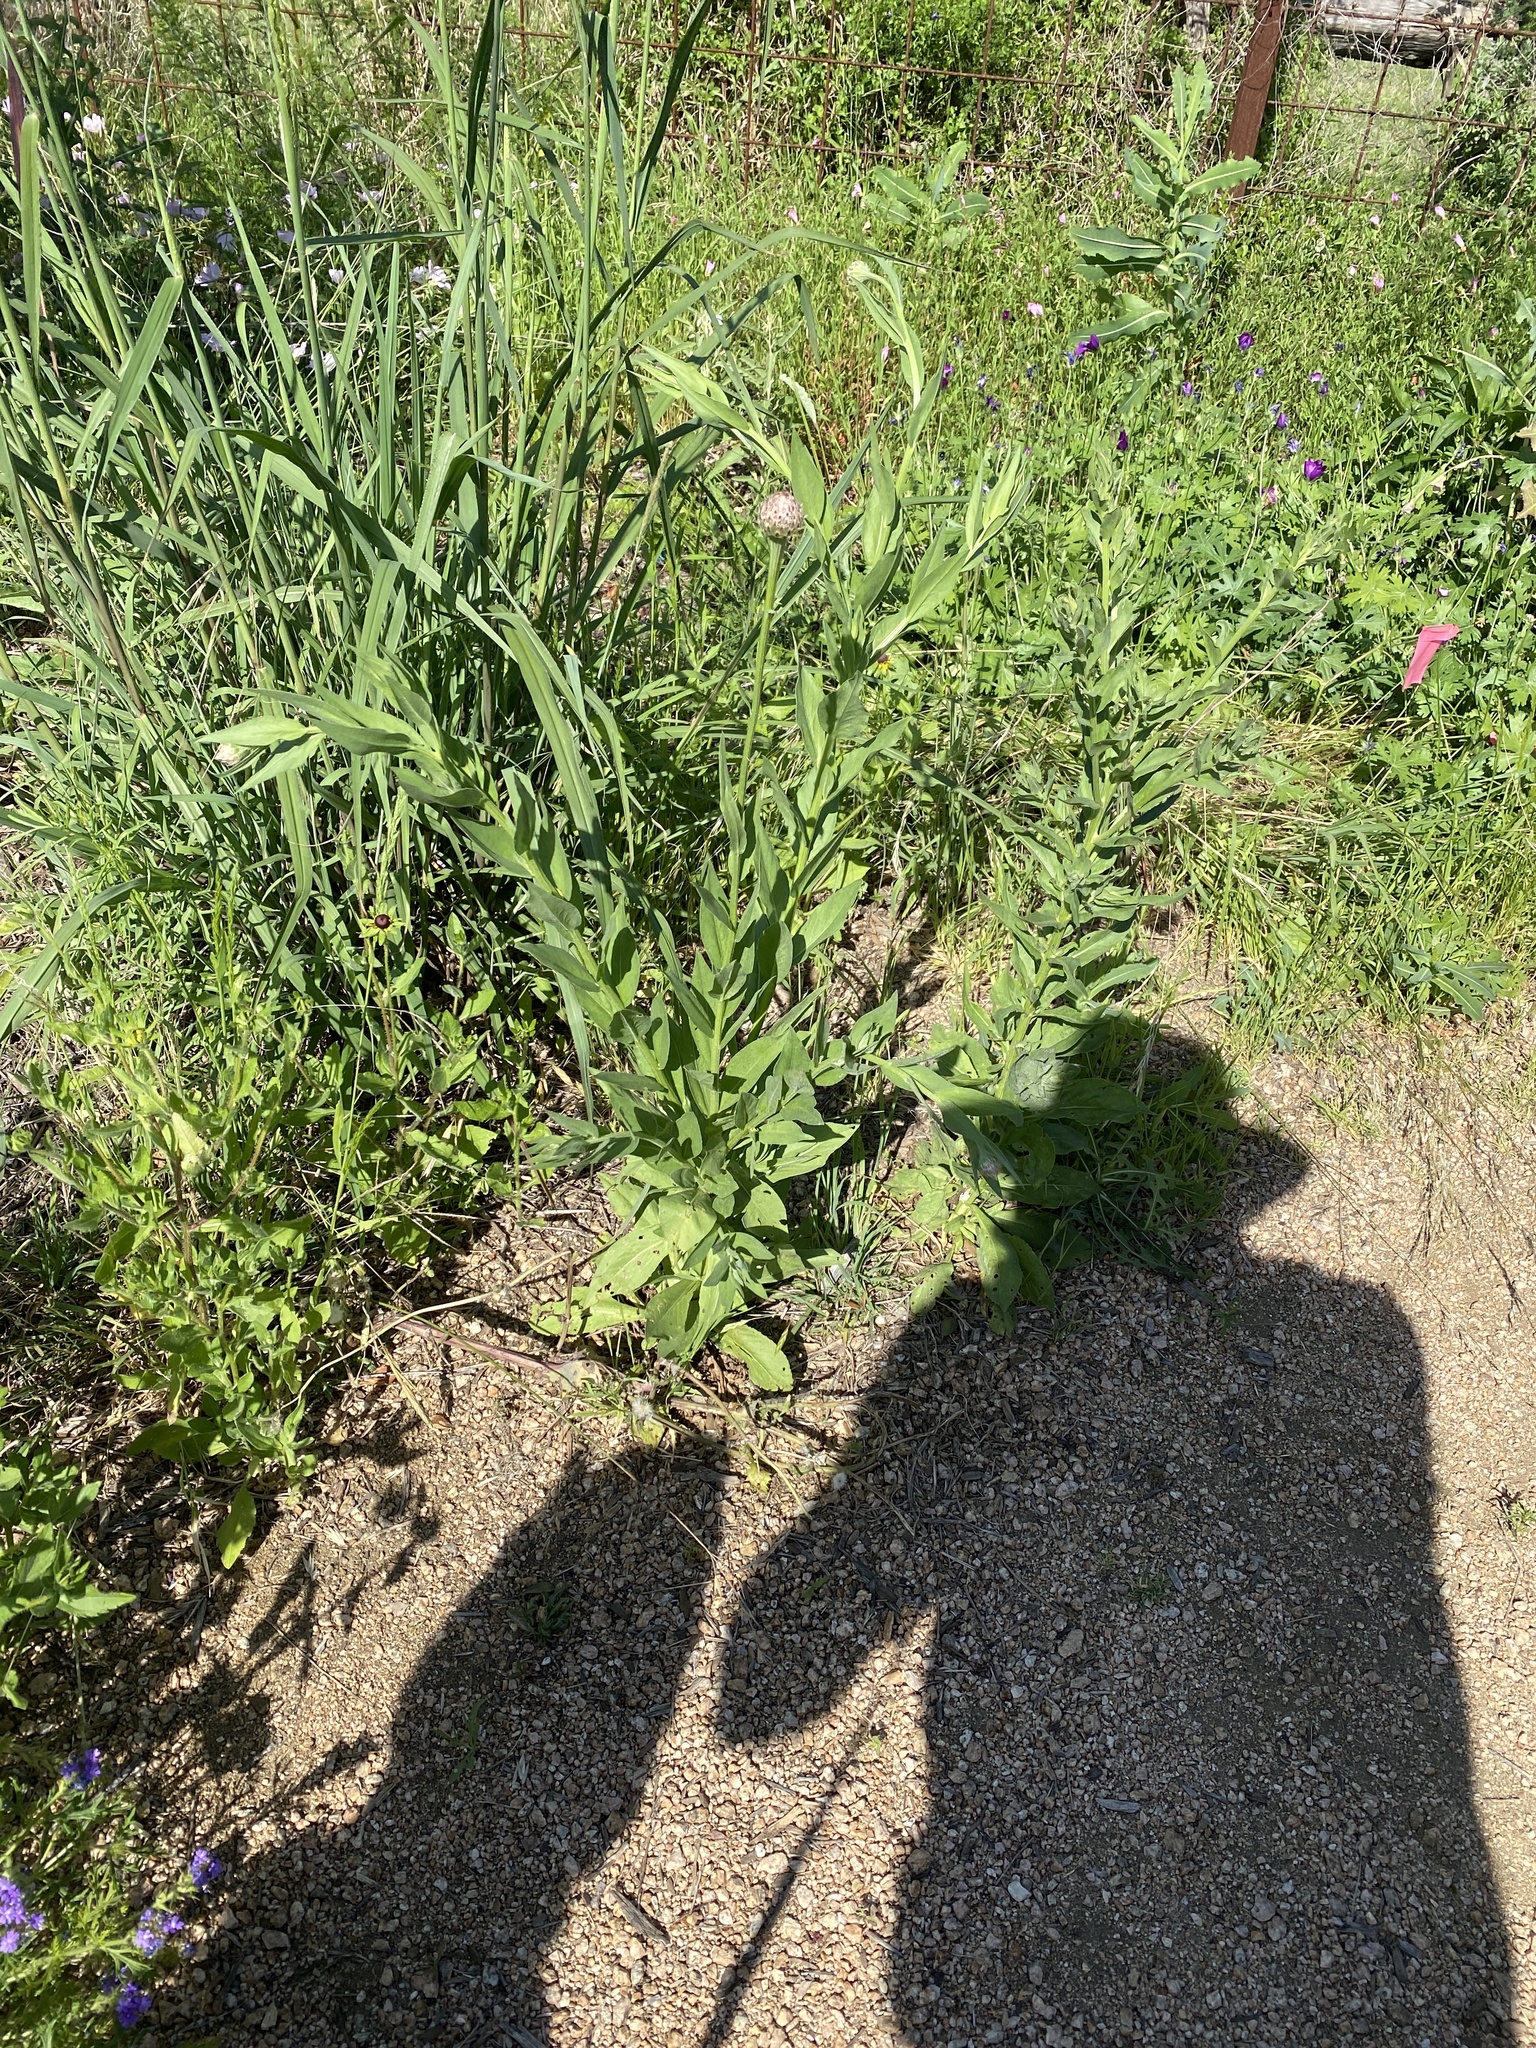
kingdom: Plantae
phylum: Tracheophyta
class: Magnoliopsida
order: Asterales
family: Asteraceae
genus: Plectocephalus
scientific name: Plectocephalus americanus
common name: American basket-flower
